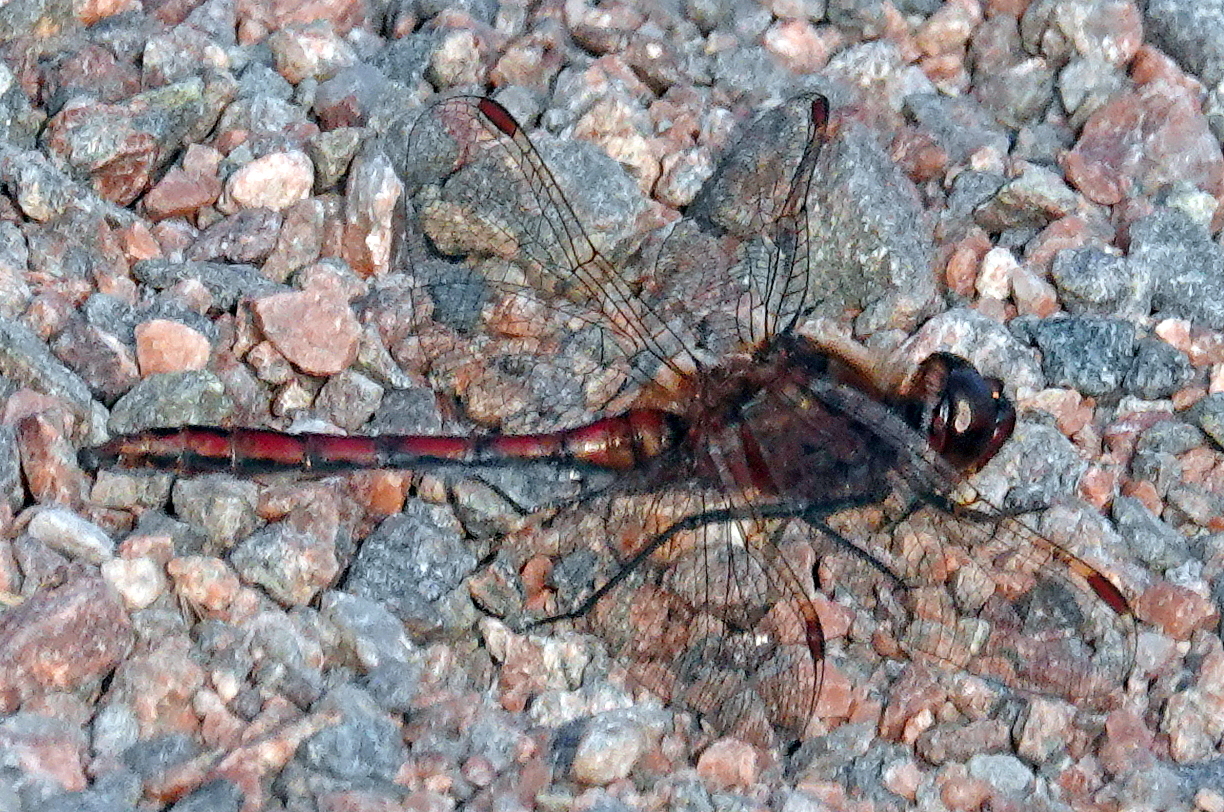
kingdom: Animalia
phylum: Arthropoda
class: Insecta
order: Odonata
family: Libellulidae
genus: Sympetrum
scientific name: Sympetrum costiferum
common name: Saffron-winged meadowhawk
